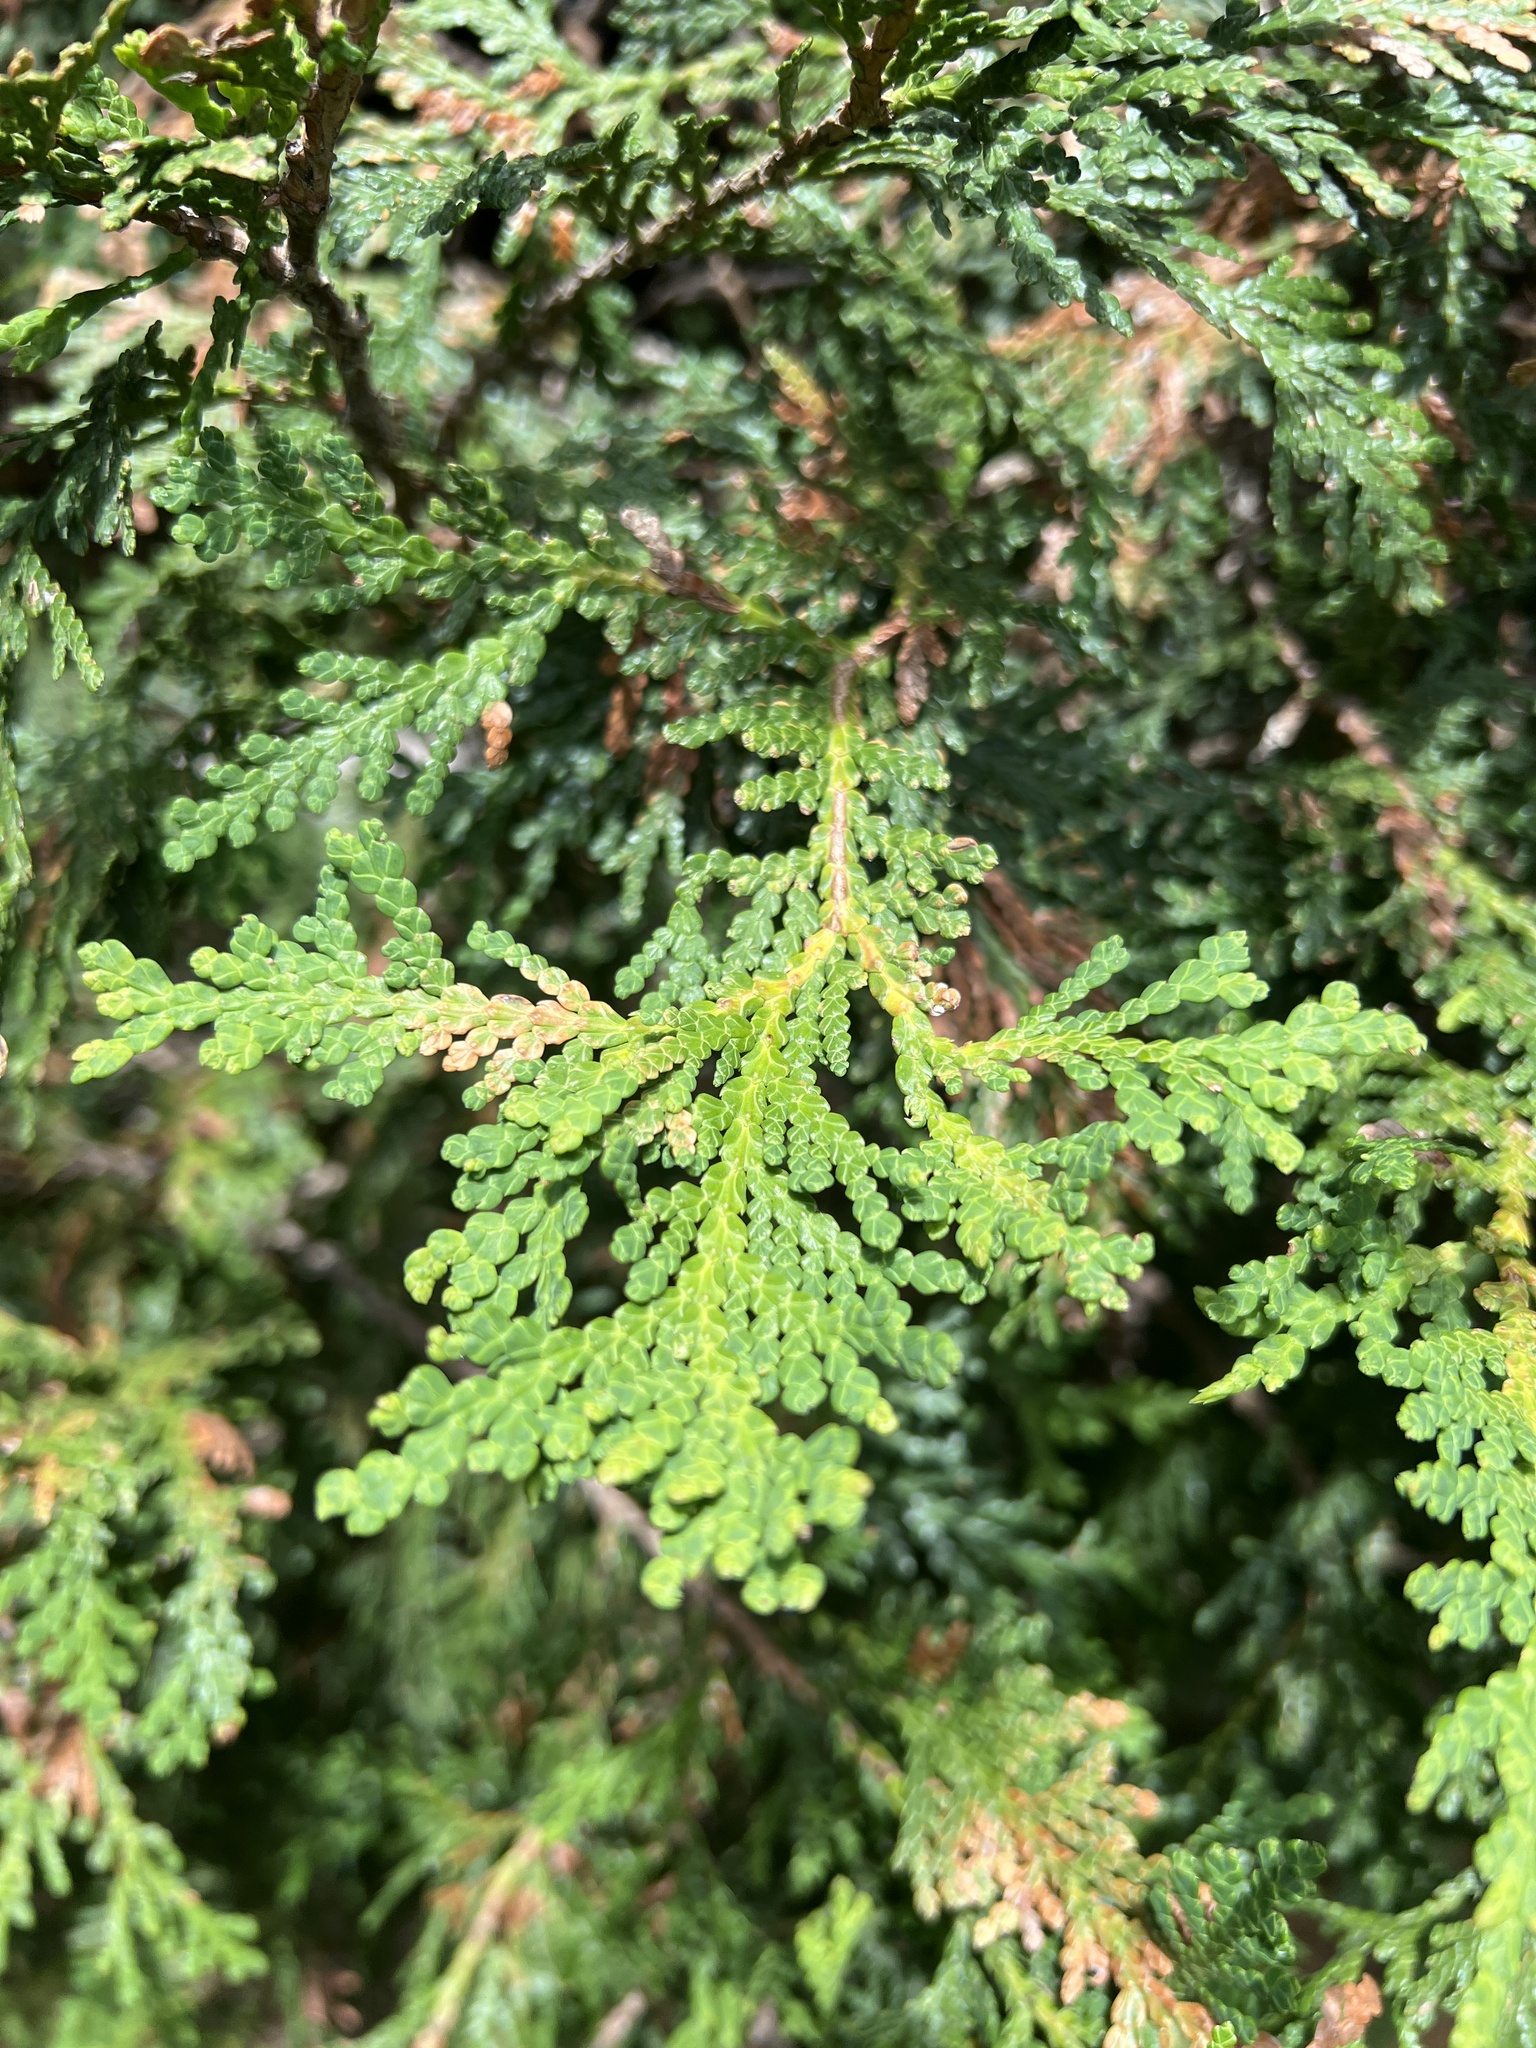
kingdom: Plantae
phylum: Tracheophyta
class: Pinopsida
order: Pinales
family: Cupressaceae
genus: Thuja
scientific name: Thuja occidentalis
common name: Northern white-cedar
